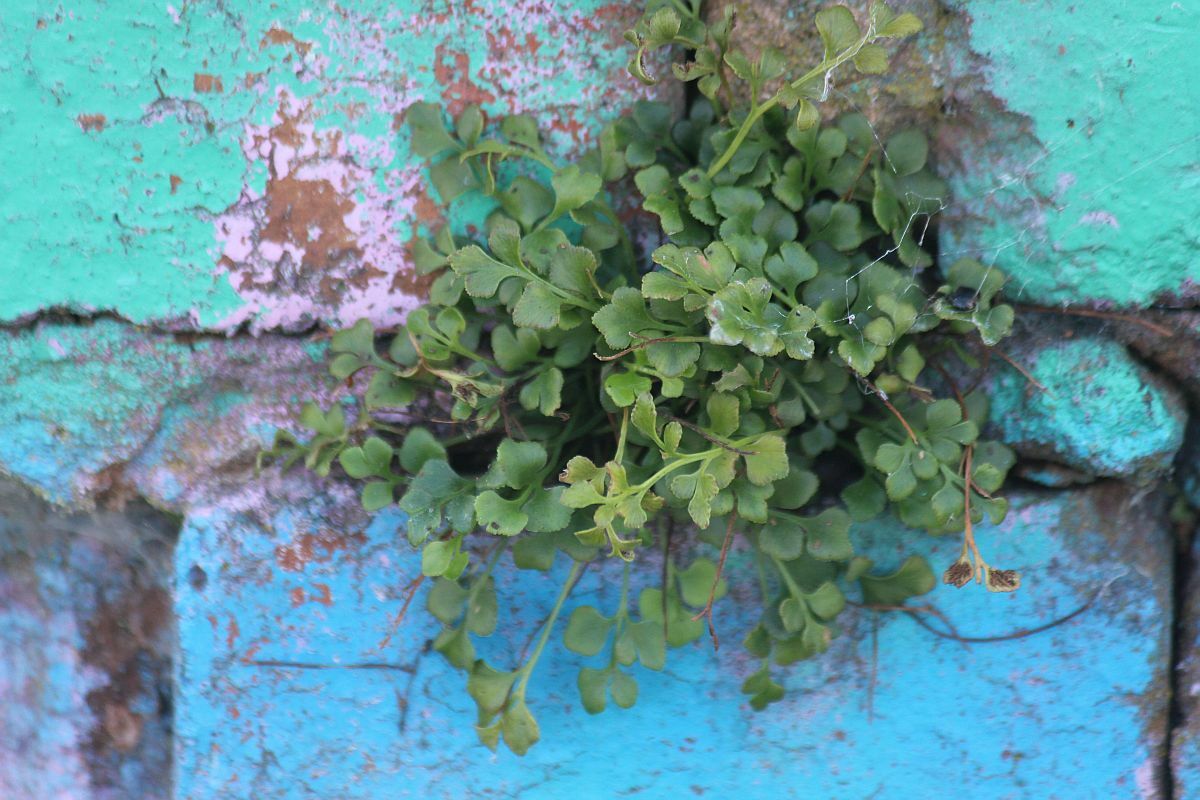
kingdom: Plantae
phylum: Tracheophyta
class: Polypodiopsida
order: Polypodiales
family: Aspleniaceae
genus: Asplenium
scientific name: Asplenium ruta-muraria
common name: Wall-rue
